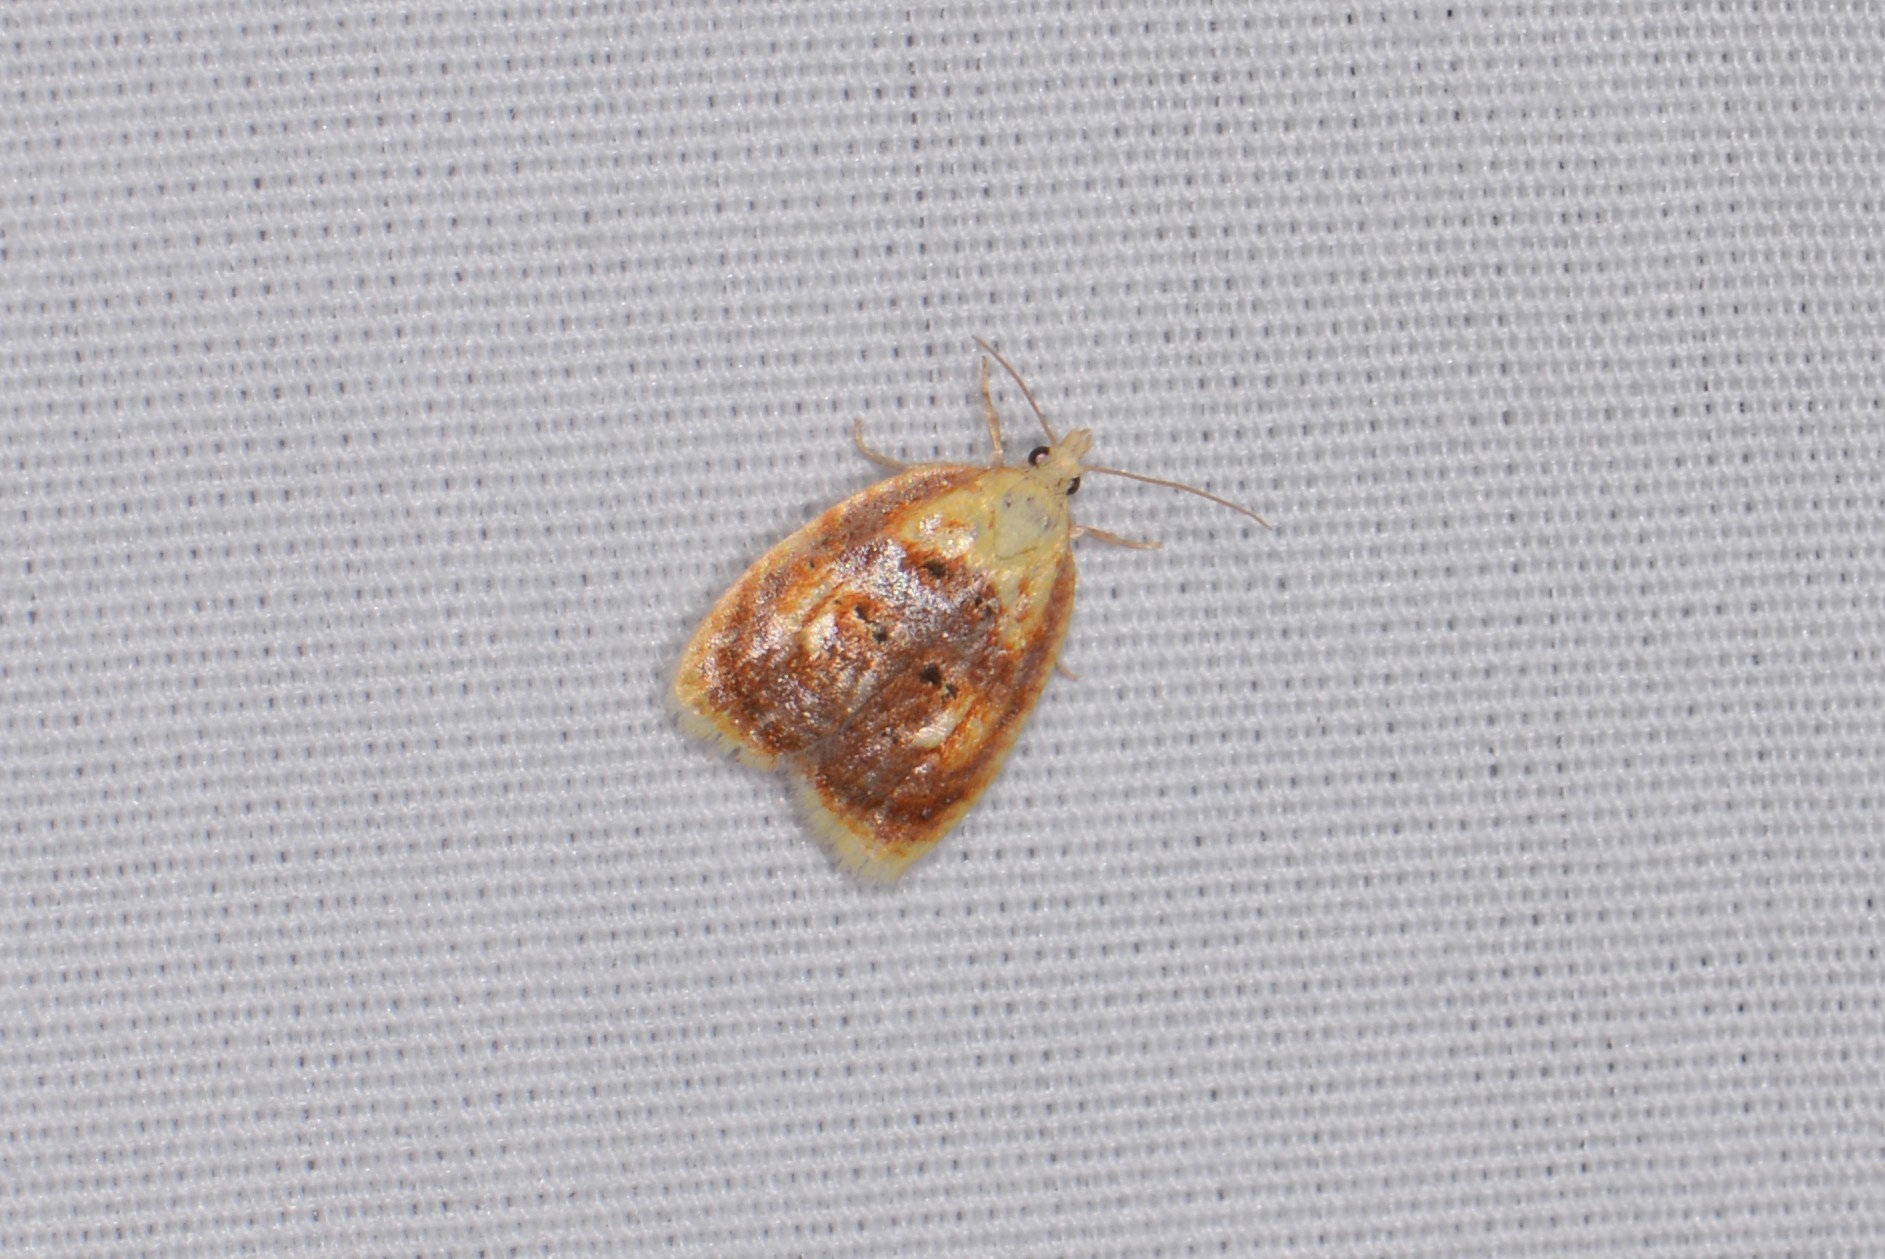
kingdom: Animalia
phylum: Arthropoda
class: Insecta
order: Lepidoptera
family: Tortricidae
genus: Acleris
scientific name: Acleris curvalana
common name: Blueberry leaftier moth
